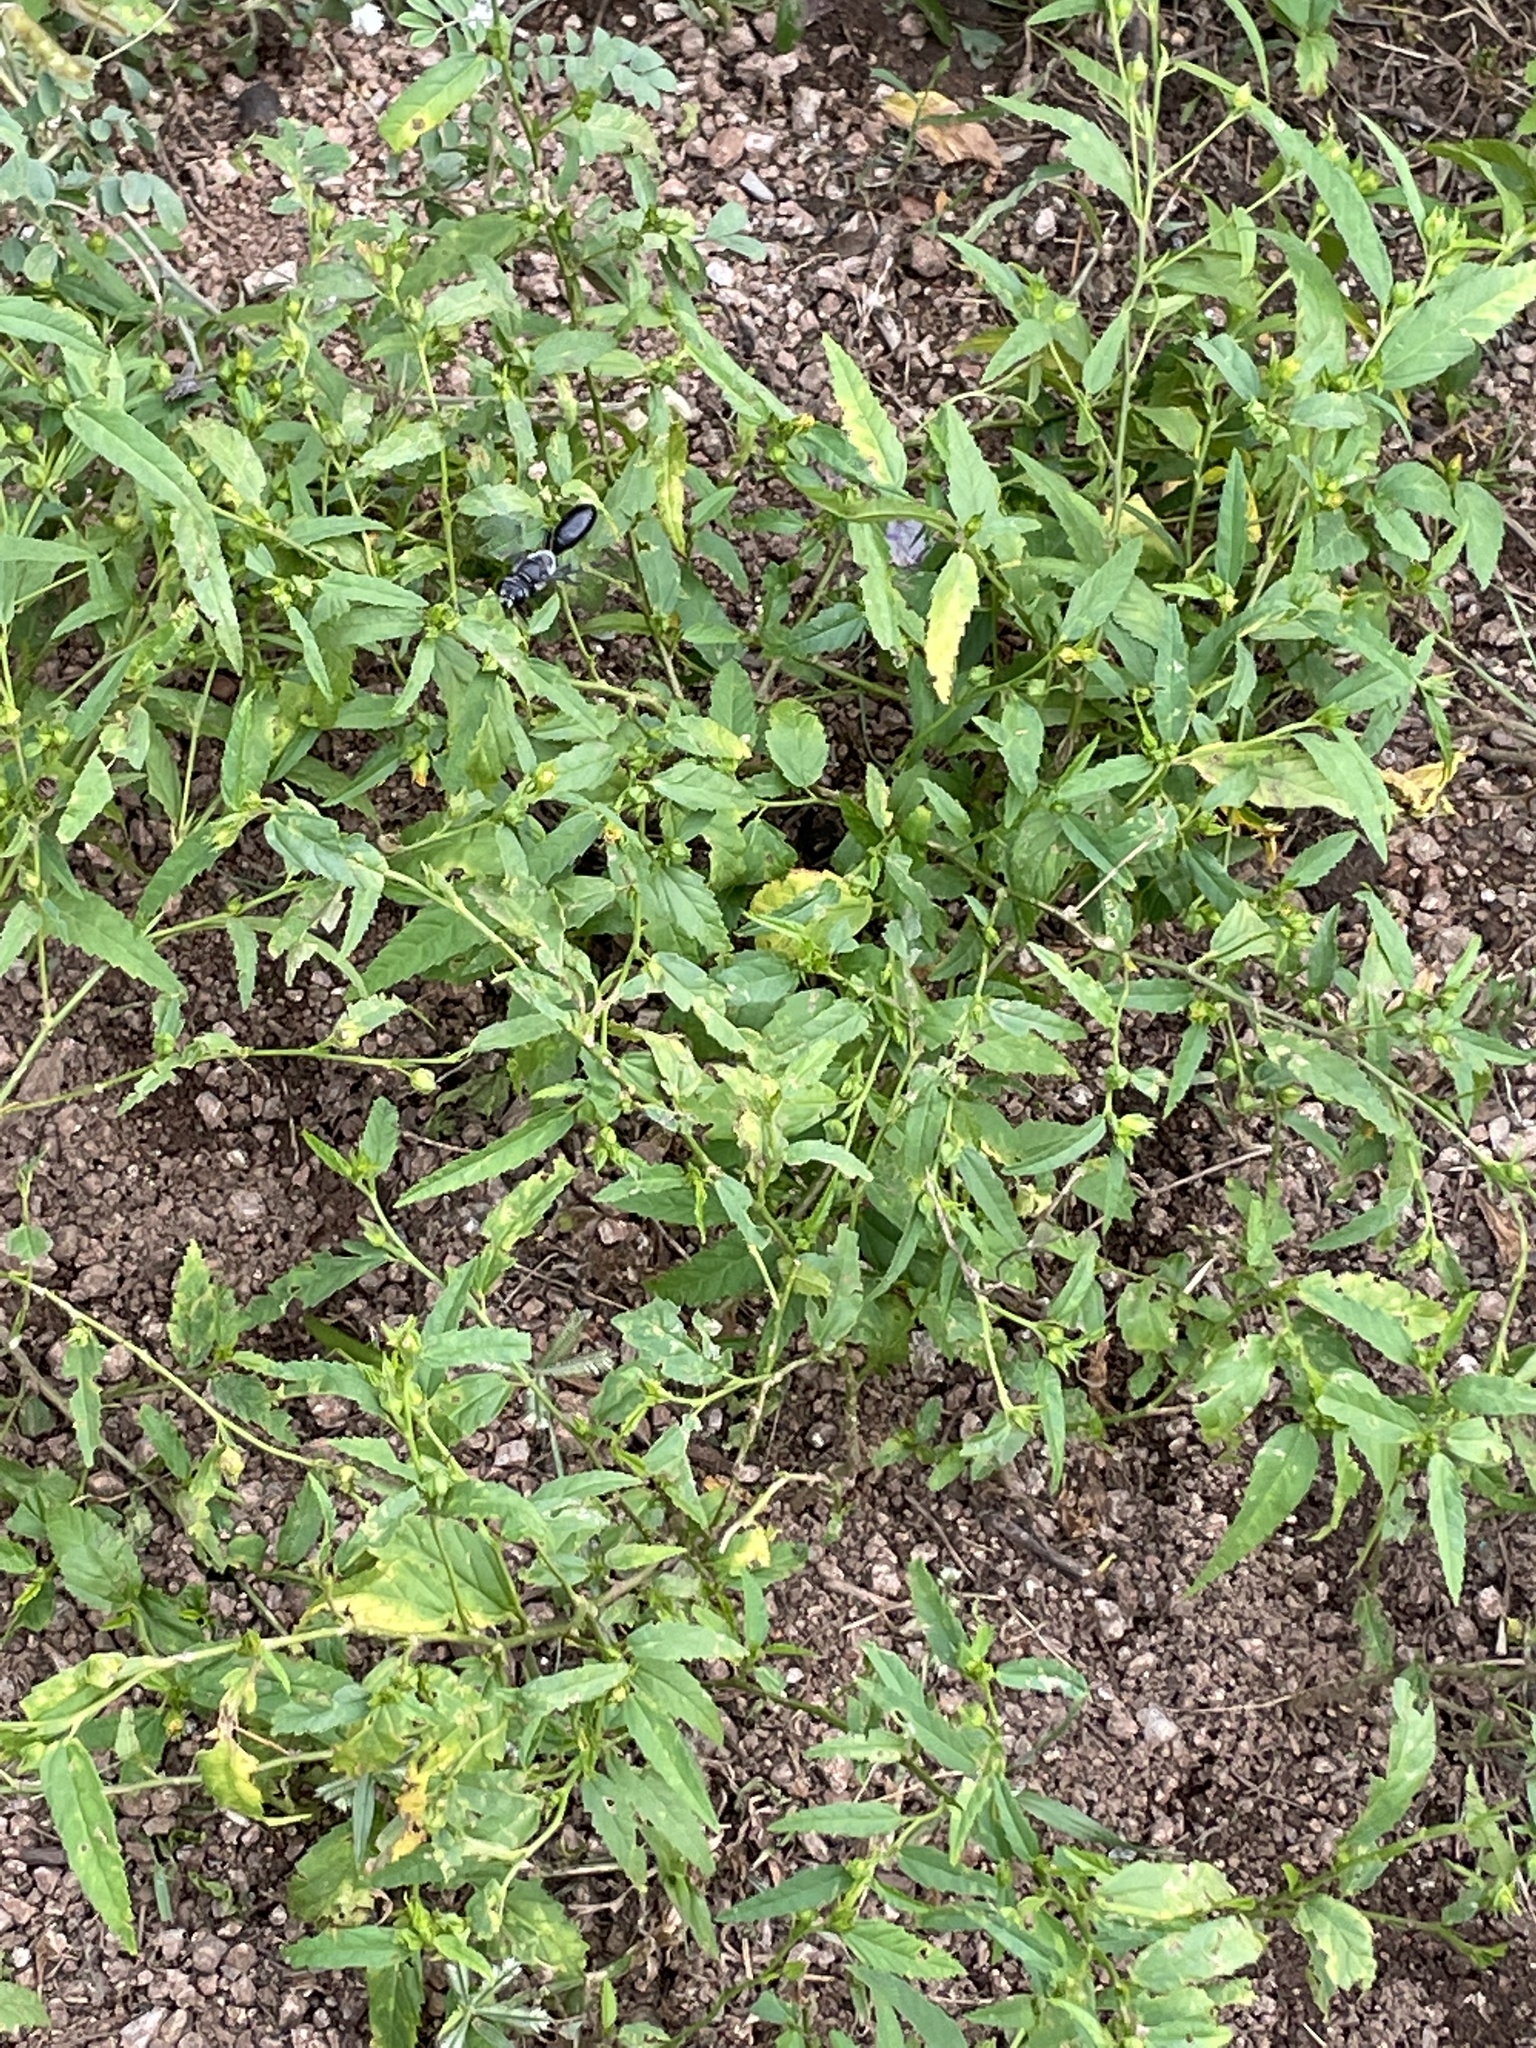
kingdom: Animalia
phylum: Arthropoda
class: Insecta
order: Hymenoptera
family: Sphecidae
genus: Sphex
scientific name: Sphex argentatus
